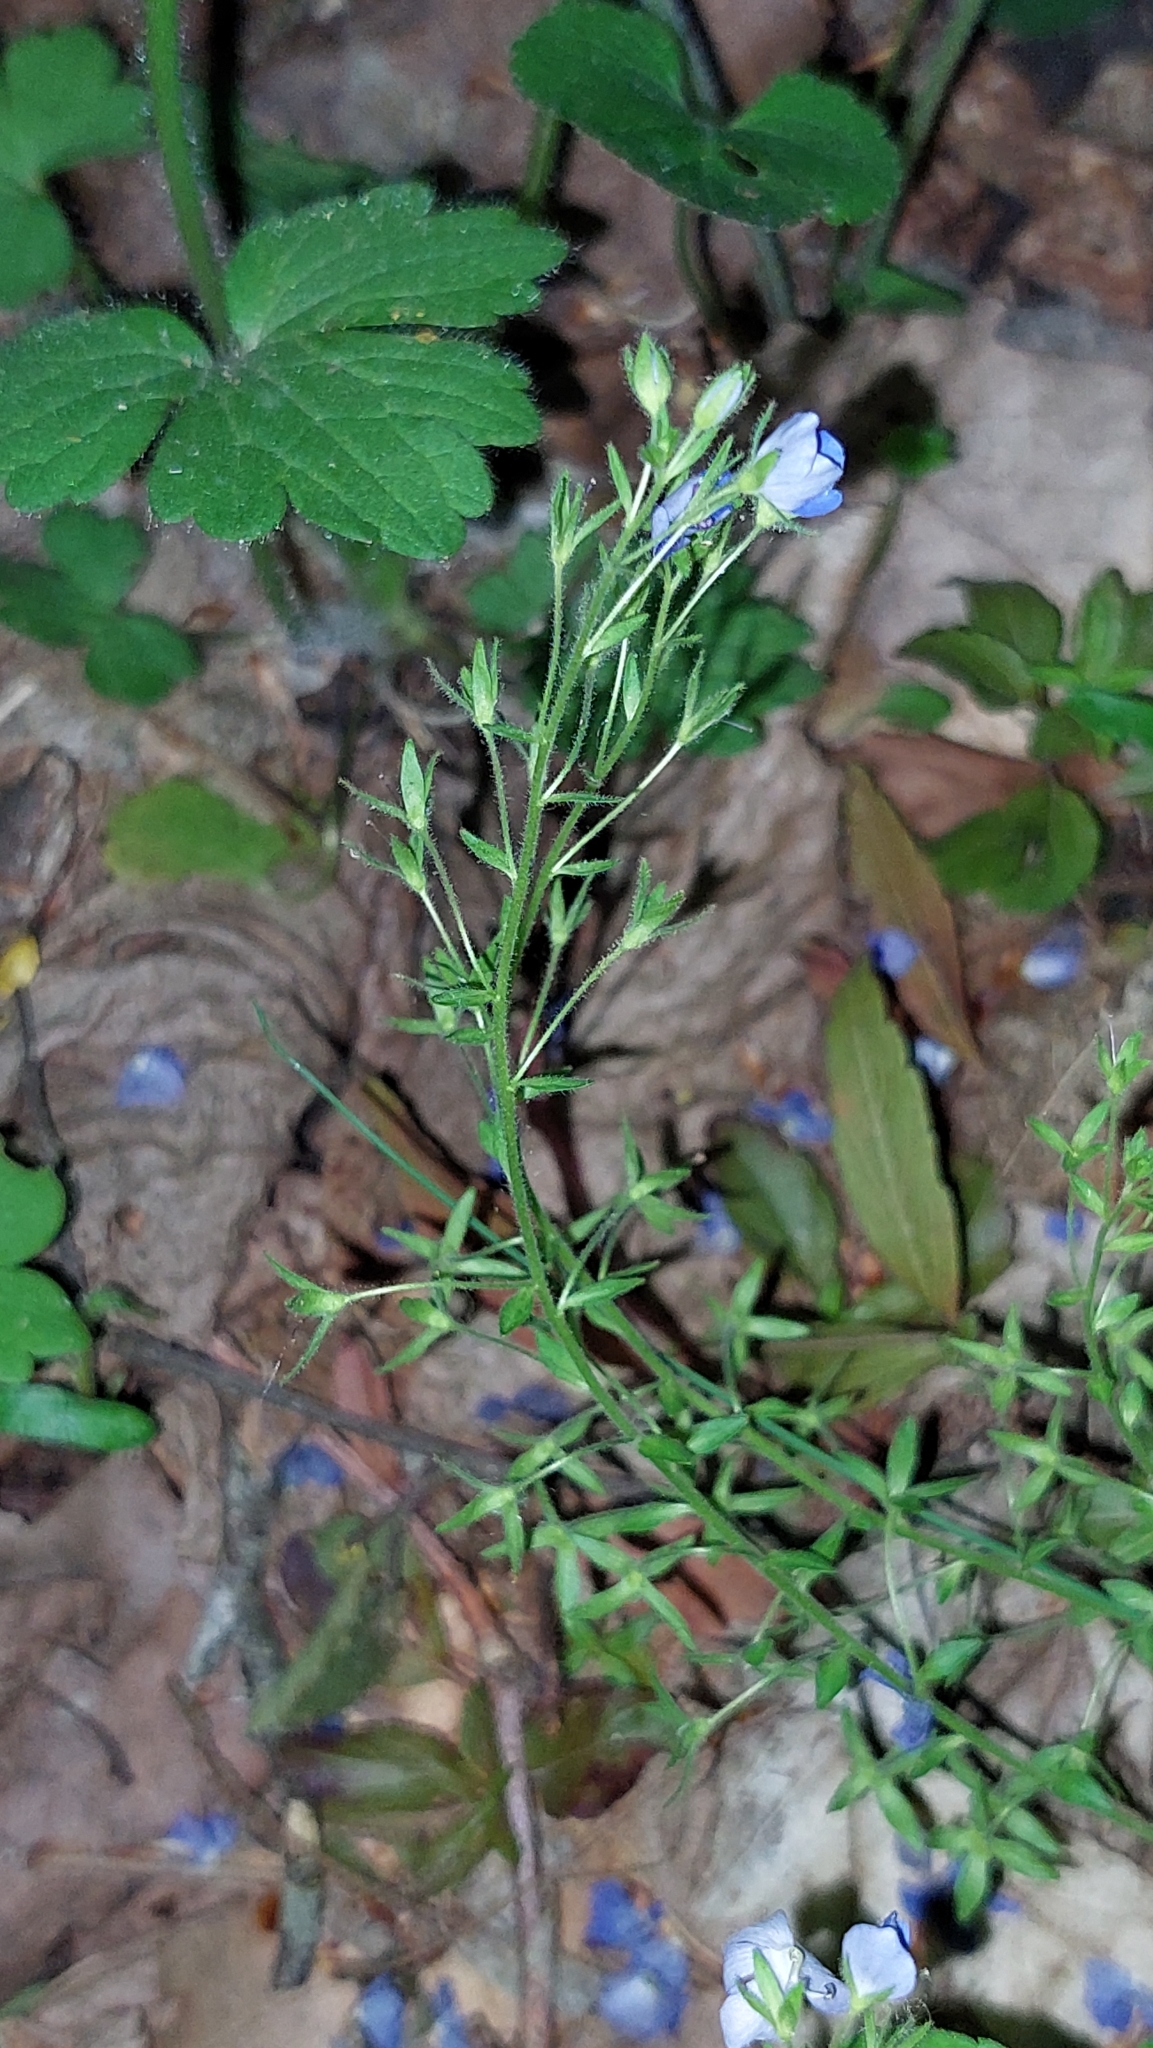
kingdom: Plantae
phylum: Tracheophyta
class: Magnoliopsida
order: Lamiales
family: Plantaginaceae
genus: Veronica
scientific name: Veronica
